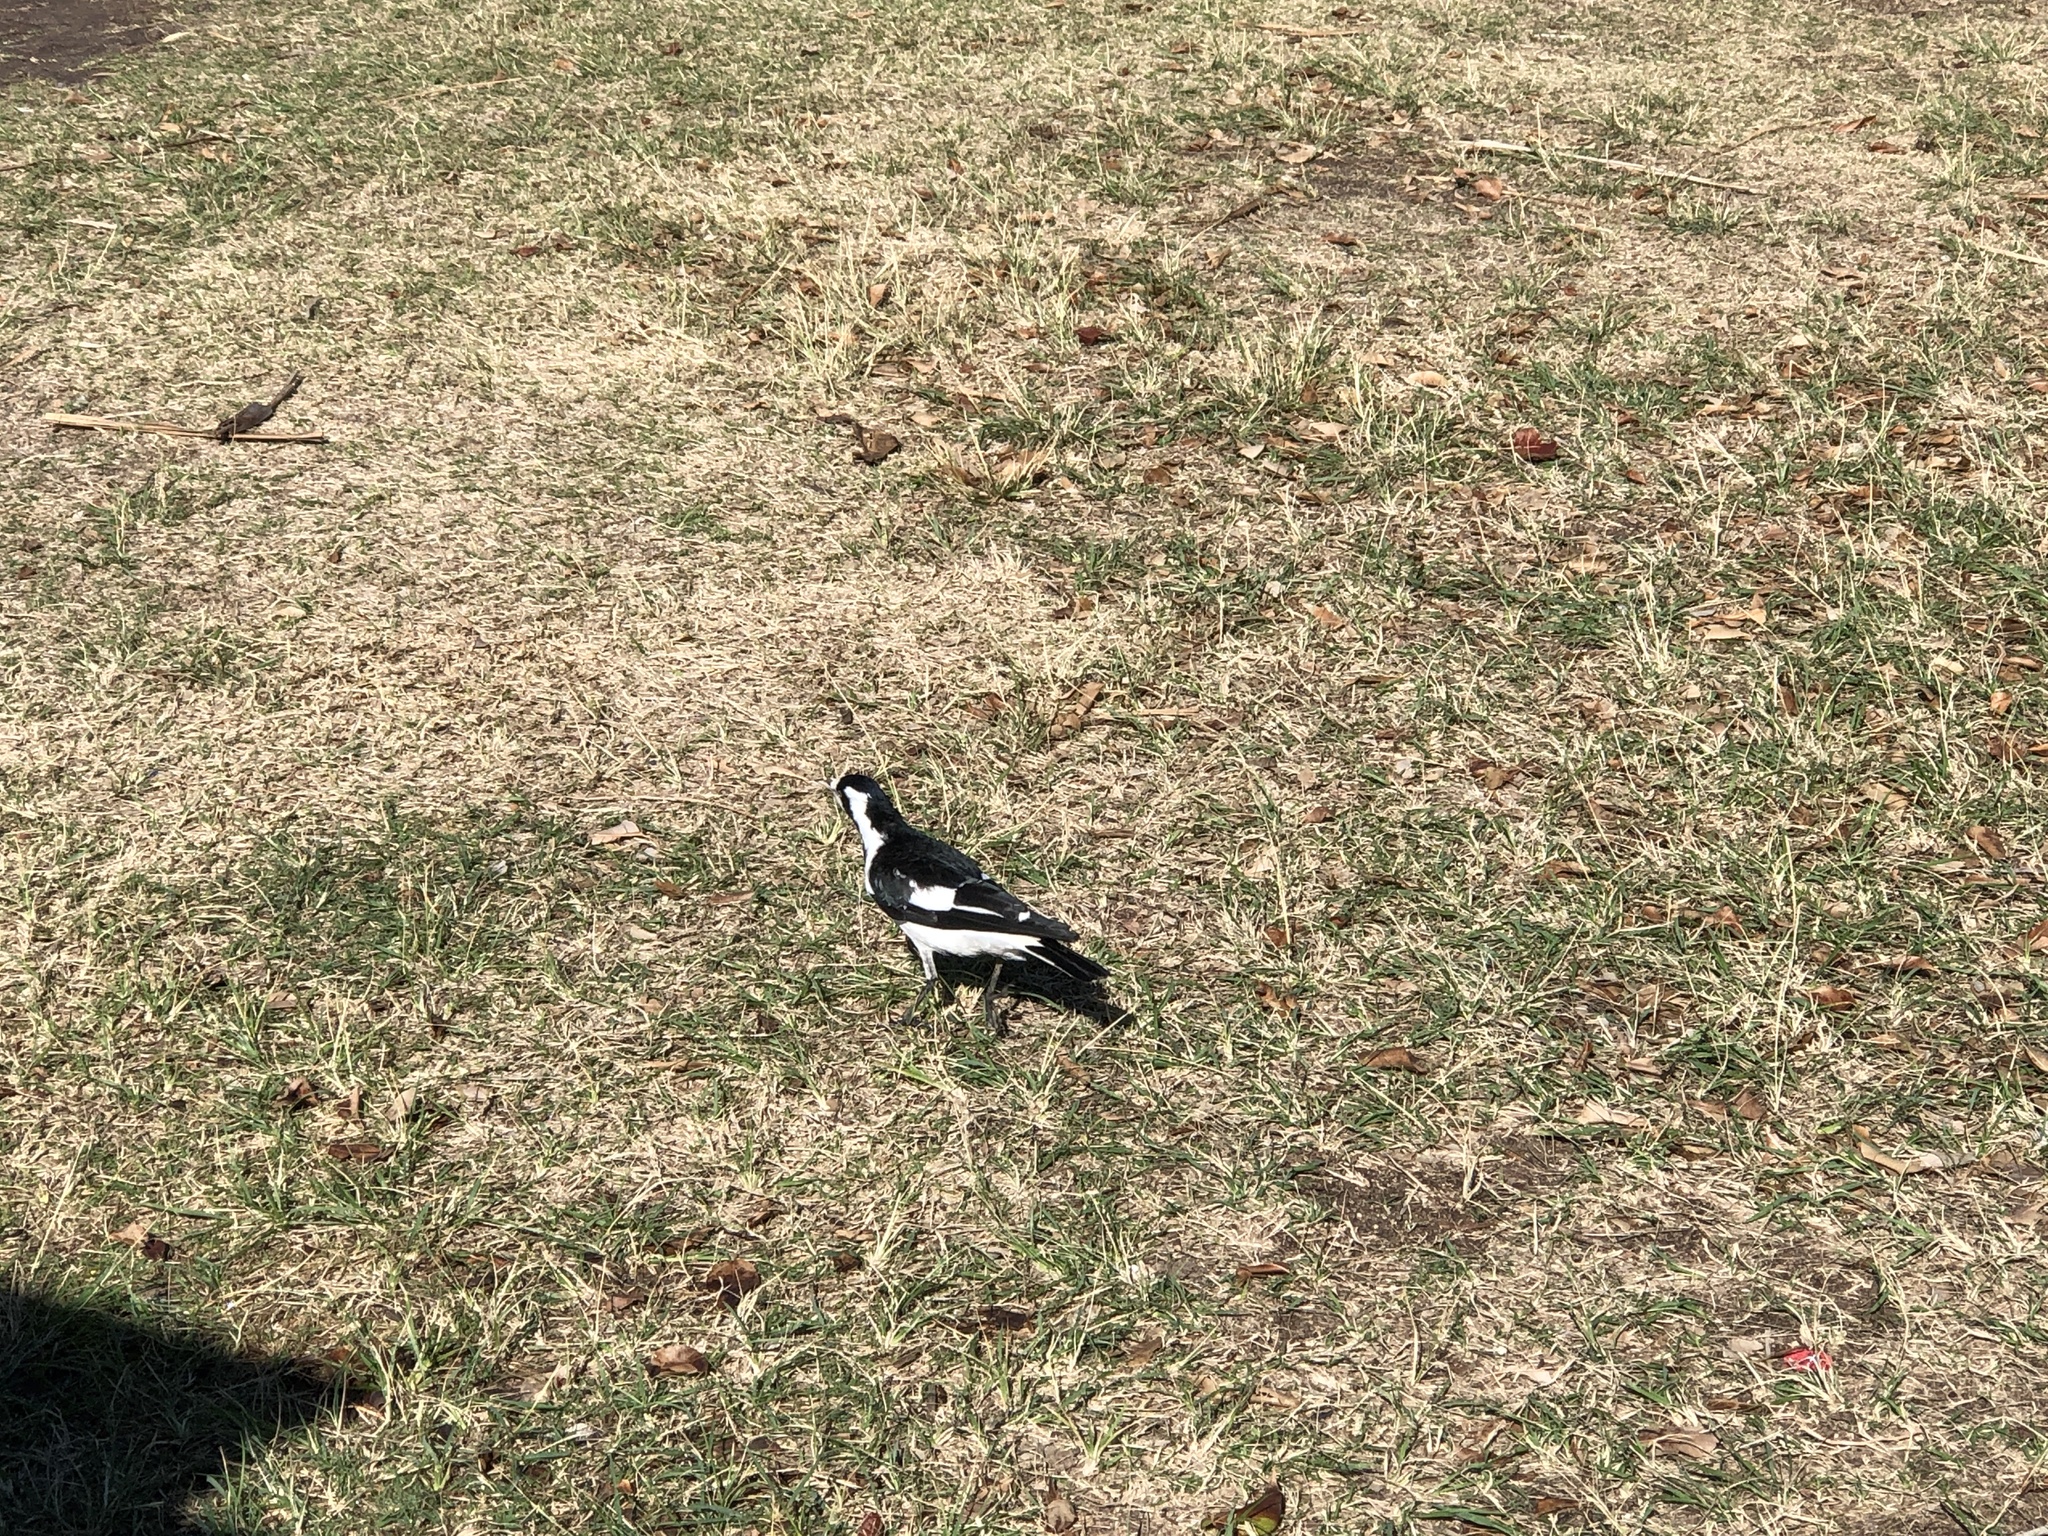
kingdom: Animalia
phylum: Chordata
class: Aves
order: Passeriformes
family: Monarchidae
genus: Grallina
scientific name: Grallina cyanoleuca
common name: Magpie-lark
